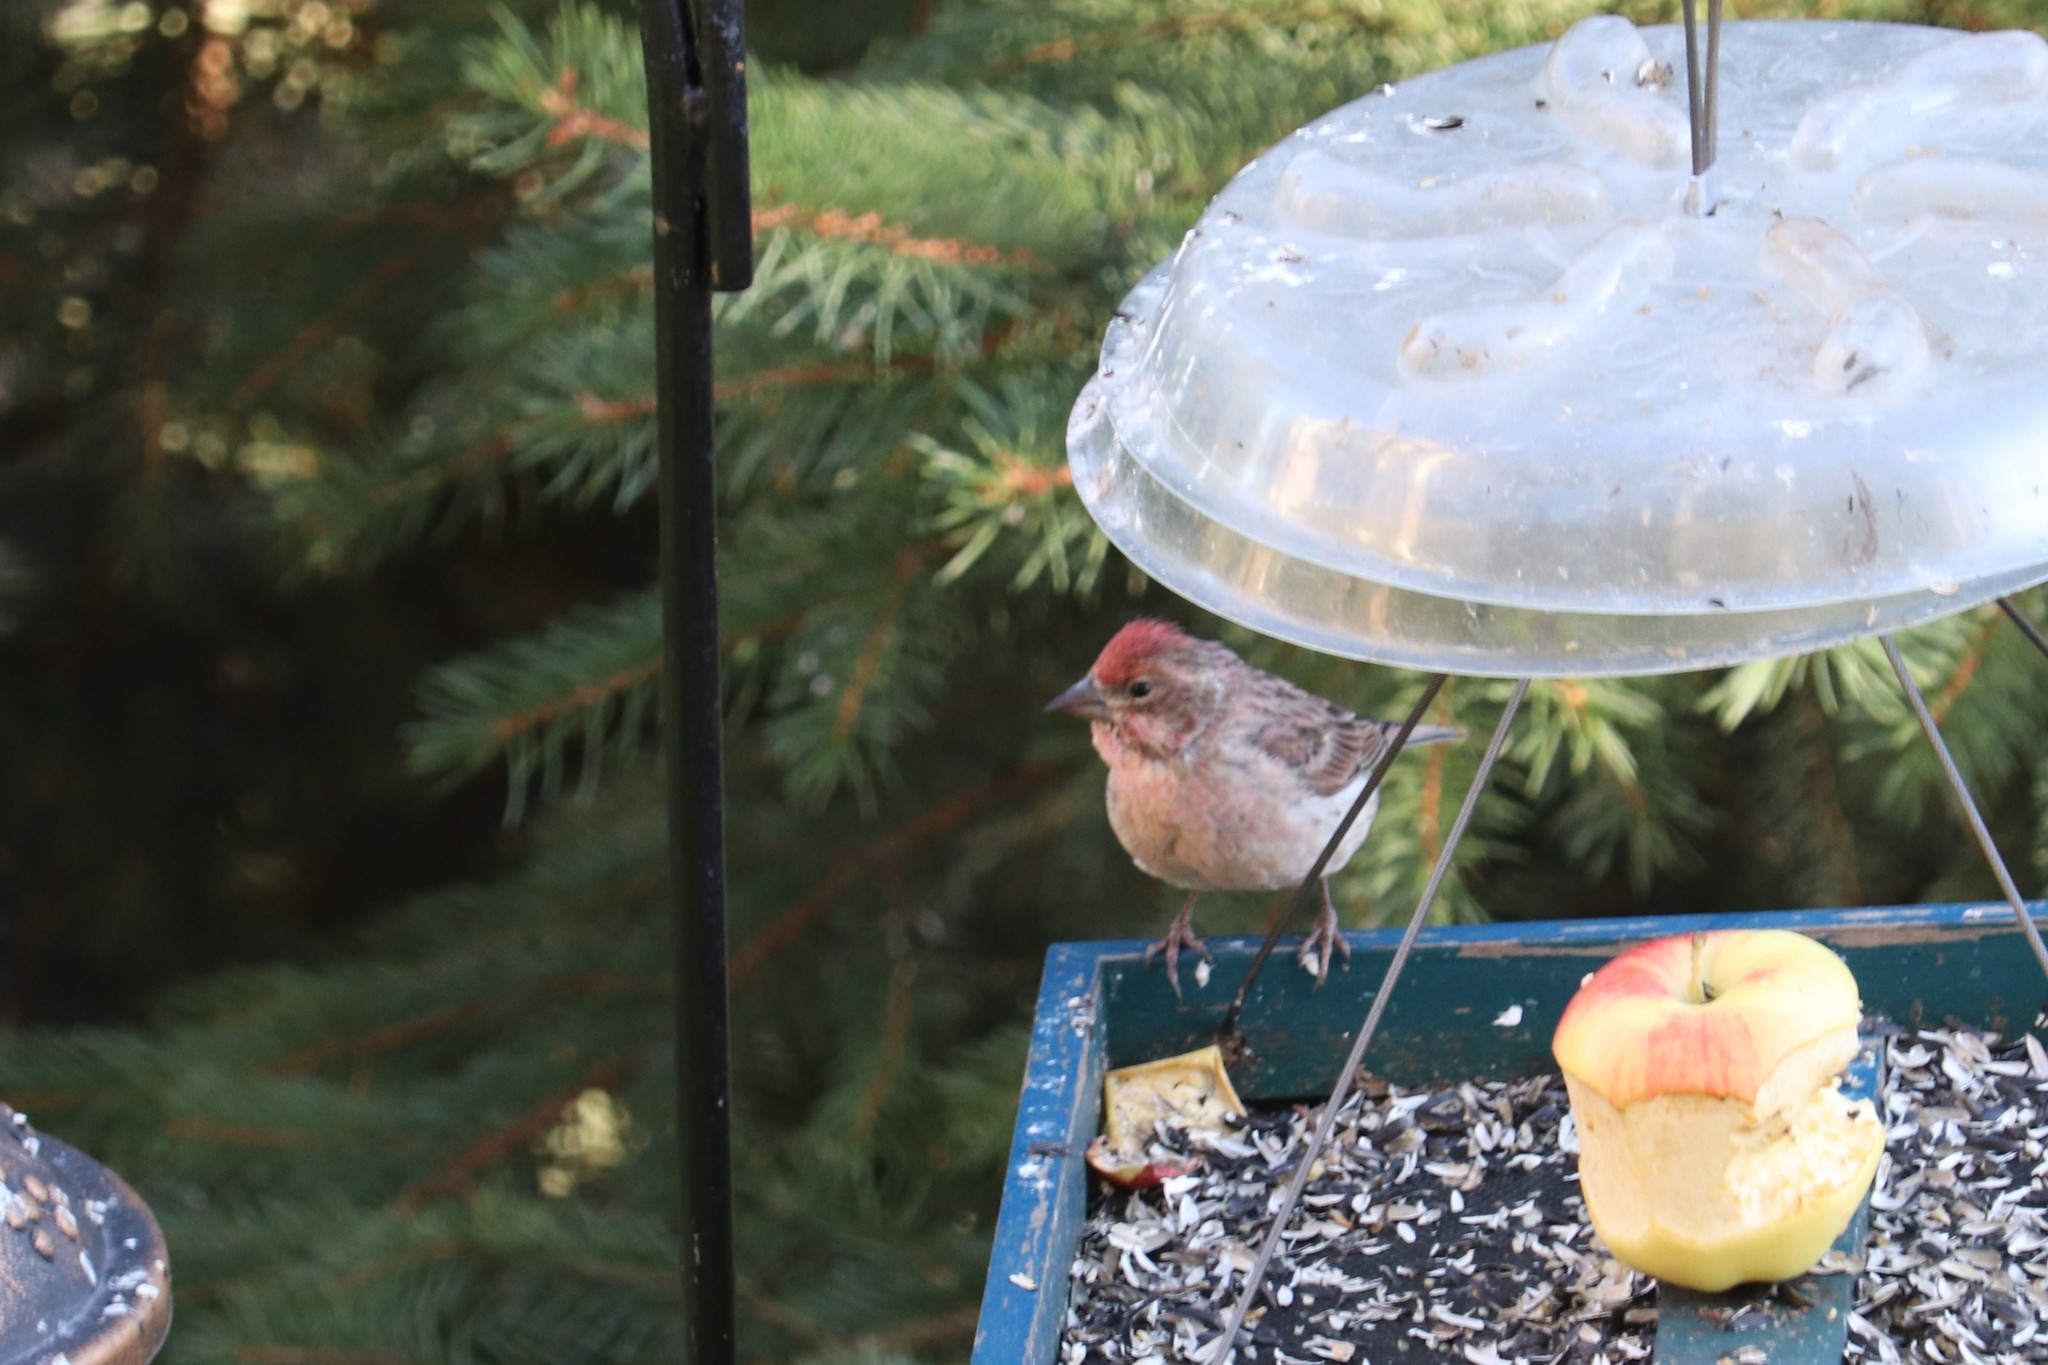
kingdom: Animalia
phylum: Chordata
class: Aves
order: Passeriformes
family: Fringillidae
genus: Haemorhous
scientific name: Haemorhous cassinii
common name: Cassin's finch
